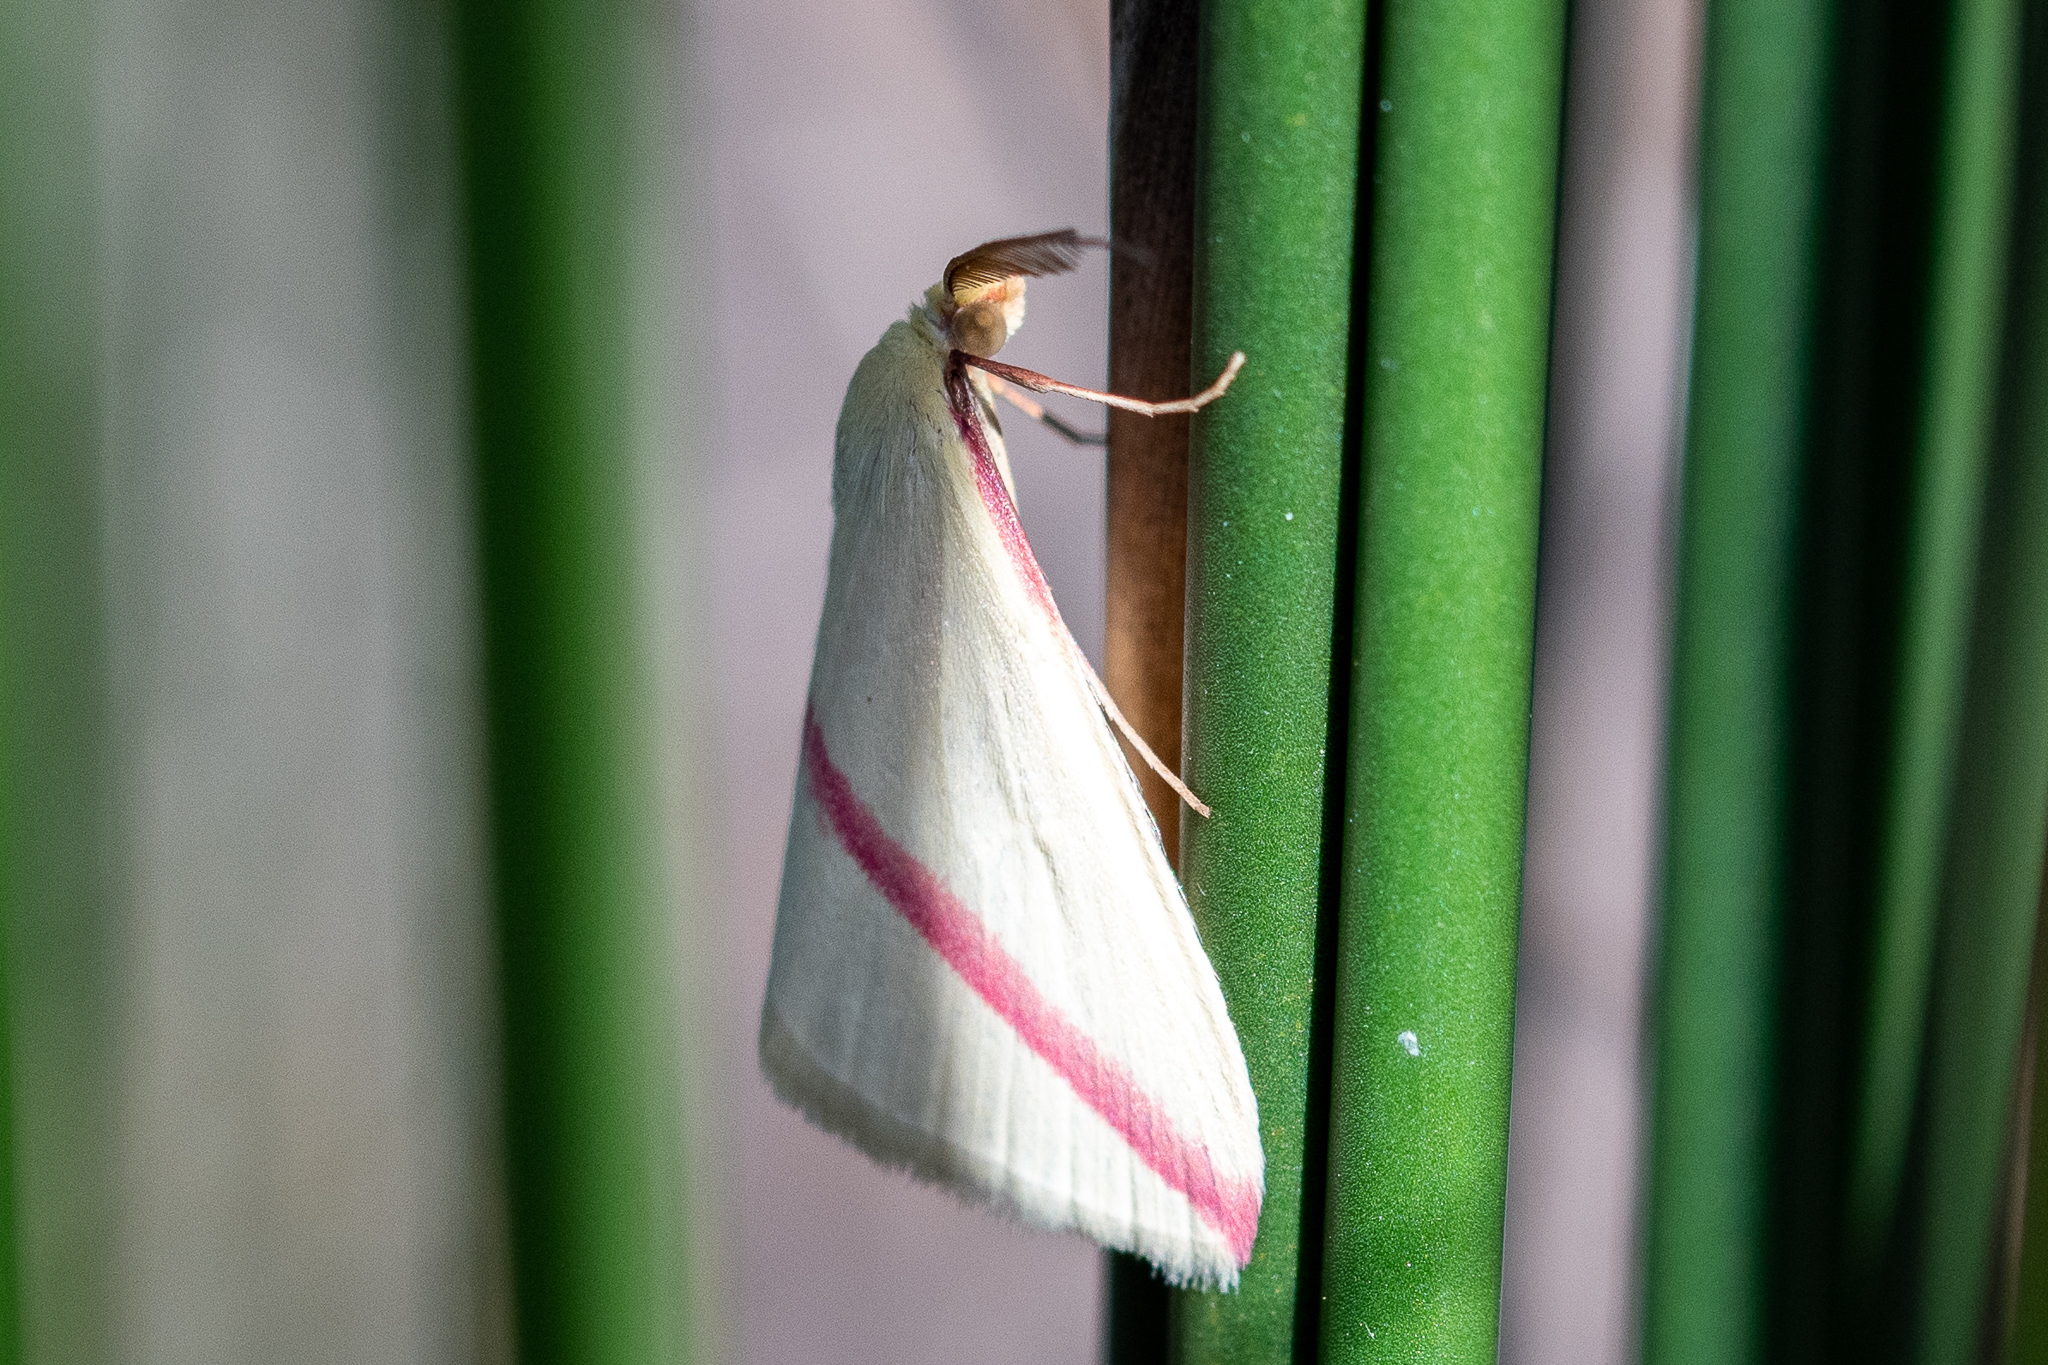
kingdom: Animalia
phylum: Arthropoda
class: Insecta
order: Lepidoptera
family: Geometridae
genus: Rhodometra
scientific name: Rhodometra sacraria
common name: Vestal
